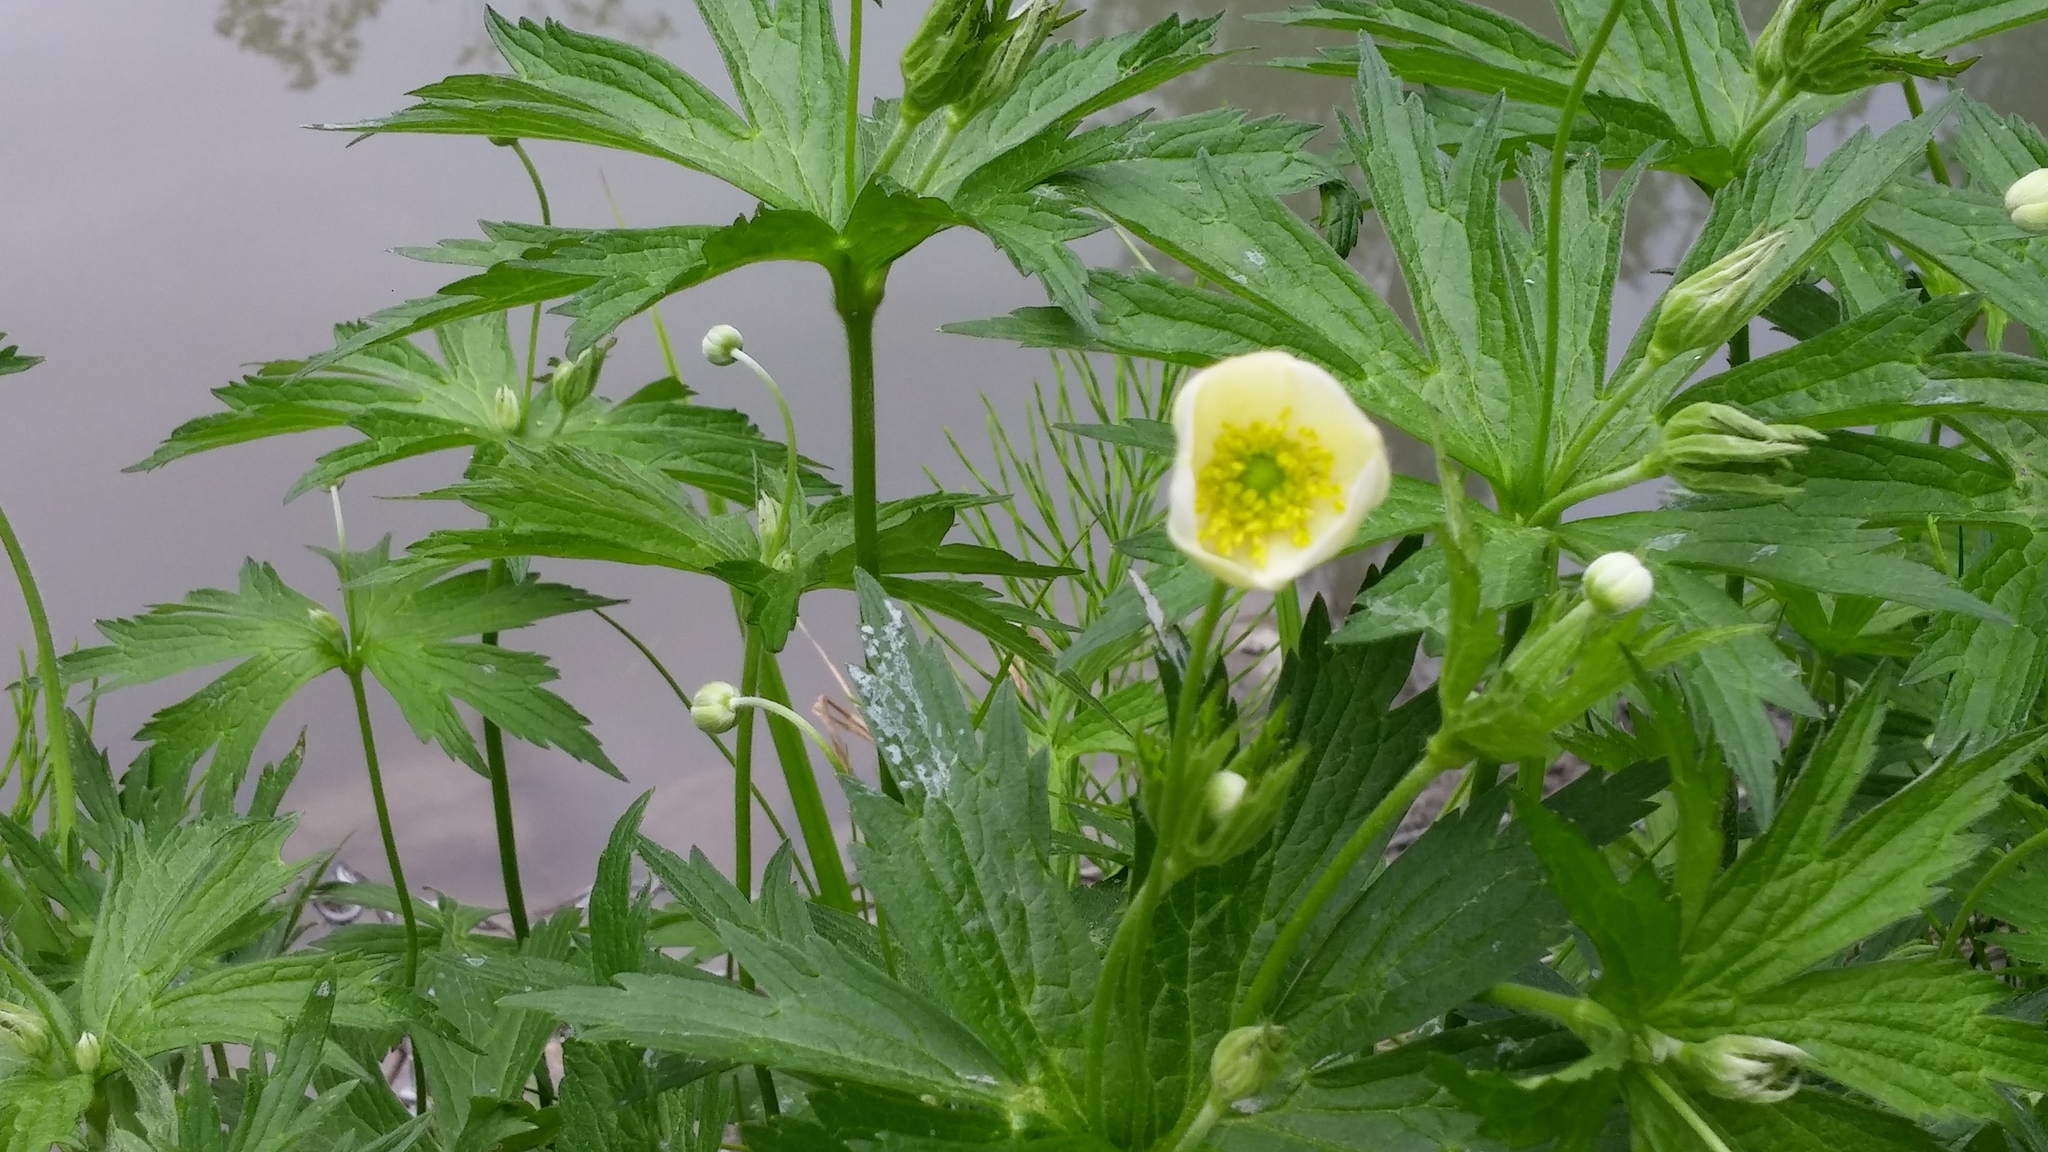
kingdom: Plantae
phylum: Tracheophyta
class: Magnoliopsida
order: Ranunculales
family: Ranunculaceae
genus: Anemonastrum
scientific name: Anemonastrum canadense
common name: Canada anemone
